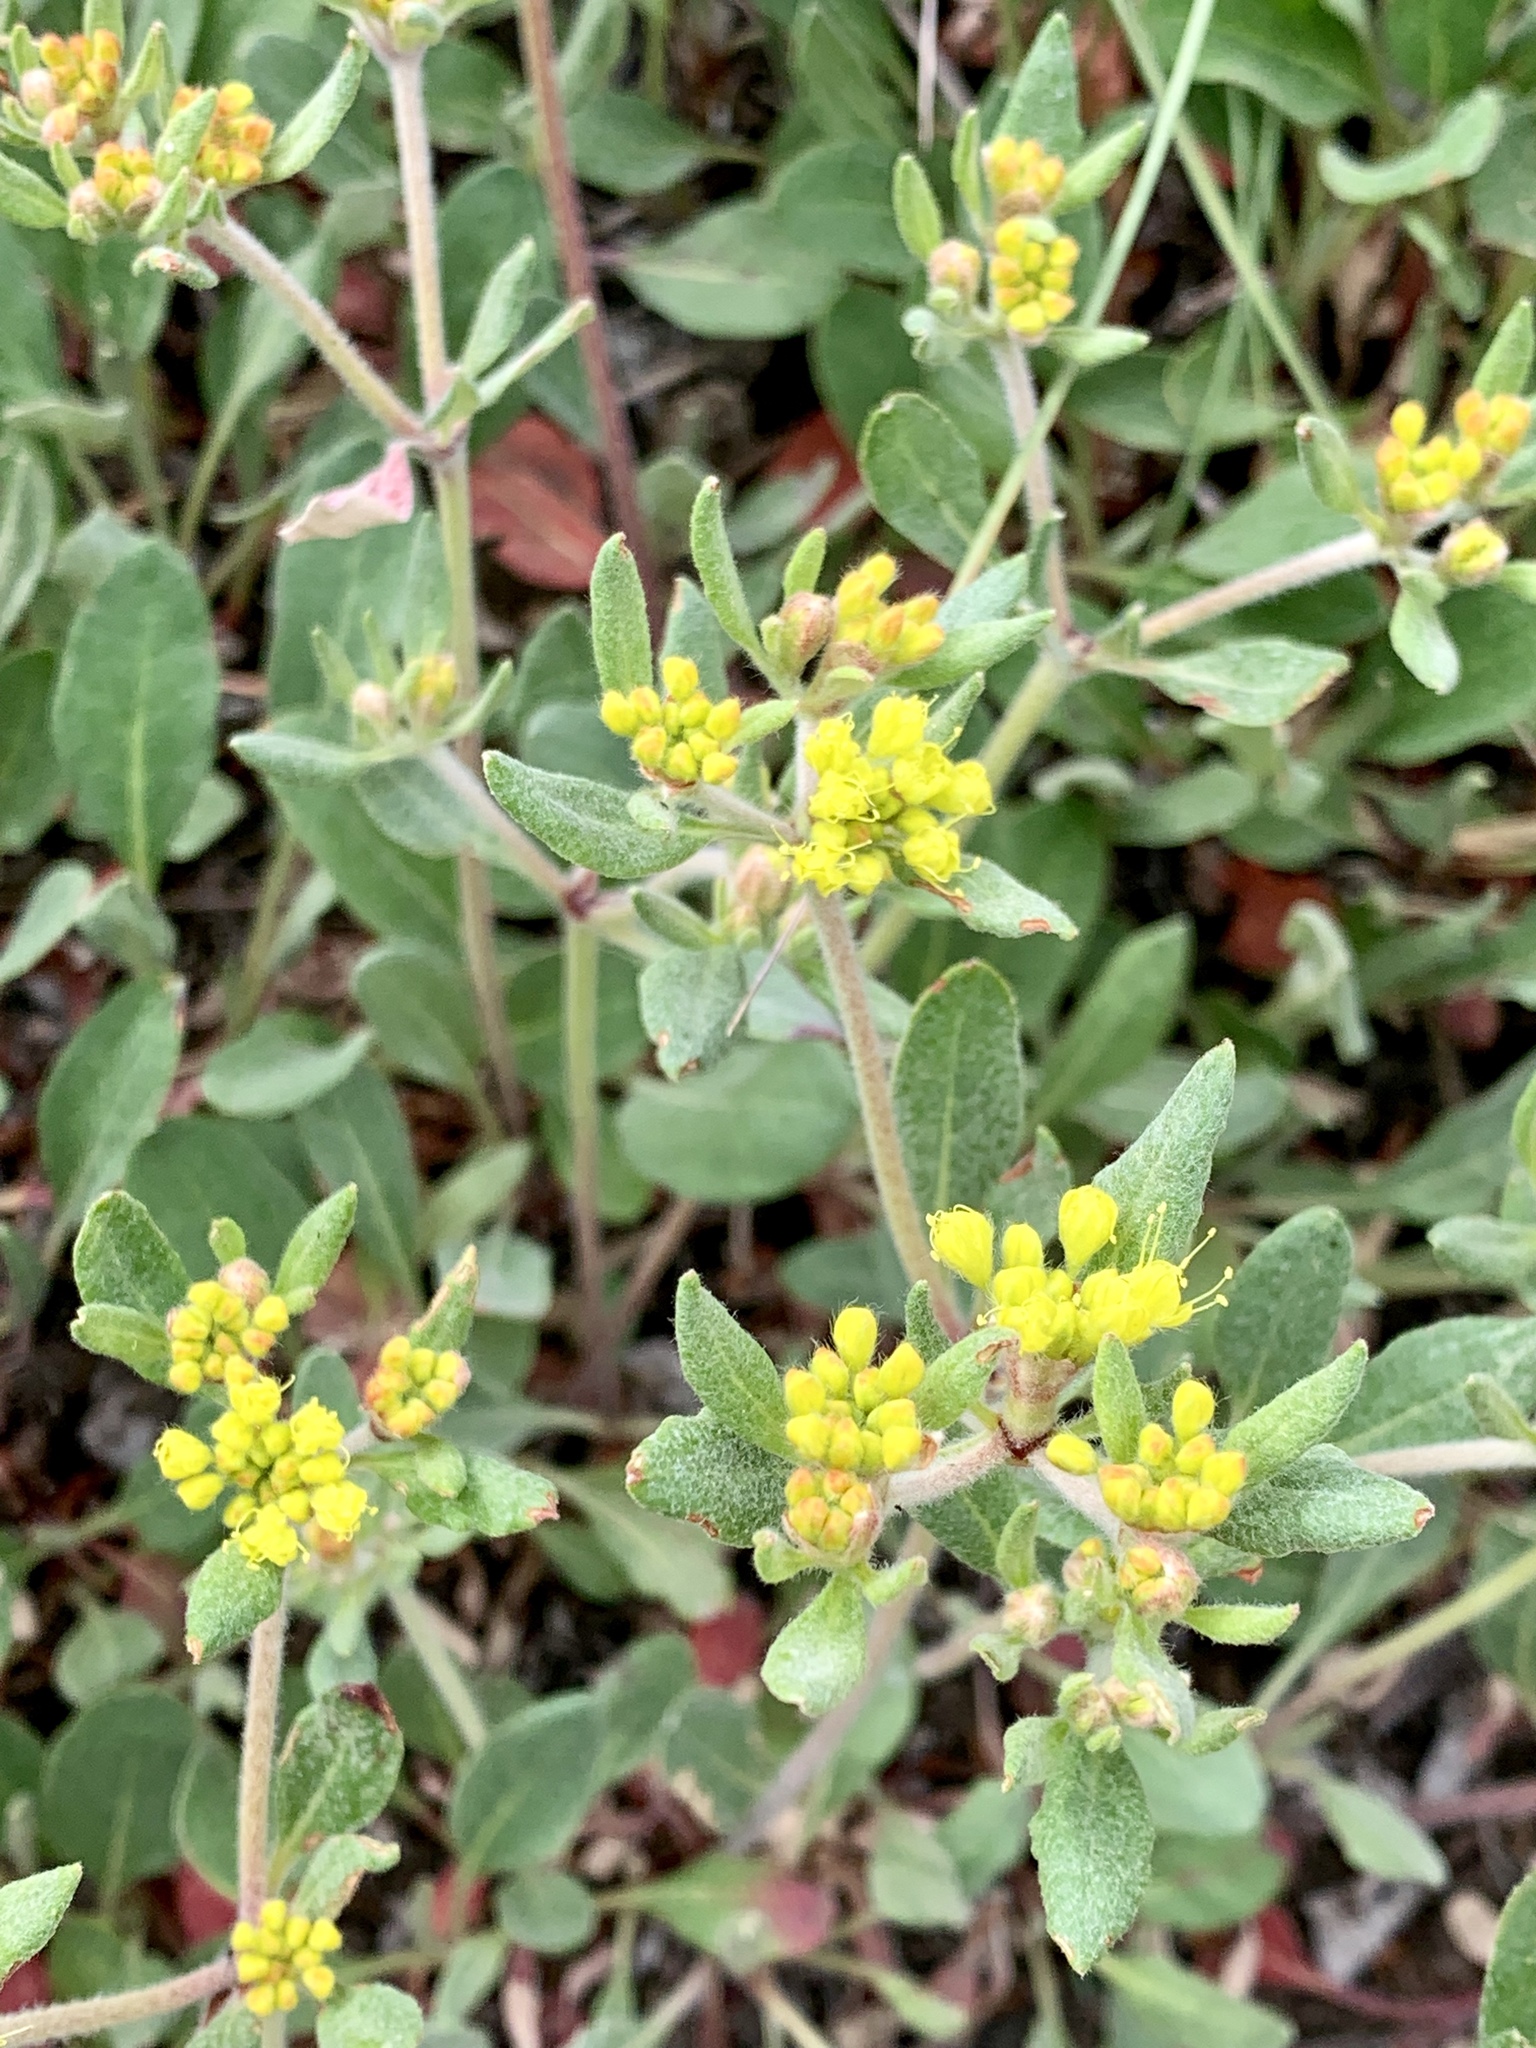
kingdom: Plantae
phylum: Tracheophyta
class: Magnoliopsida
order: Caryophyllales
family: Polygonaceae
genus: Eriogonum
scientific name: Eriogonum wootonii
